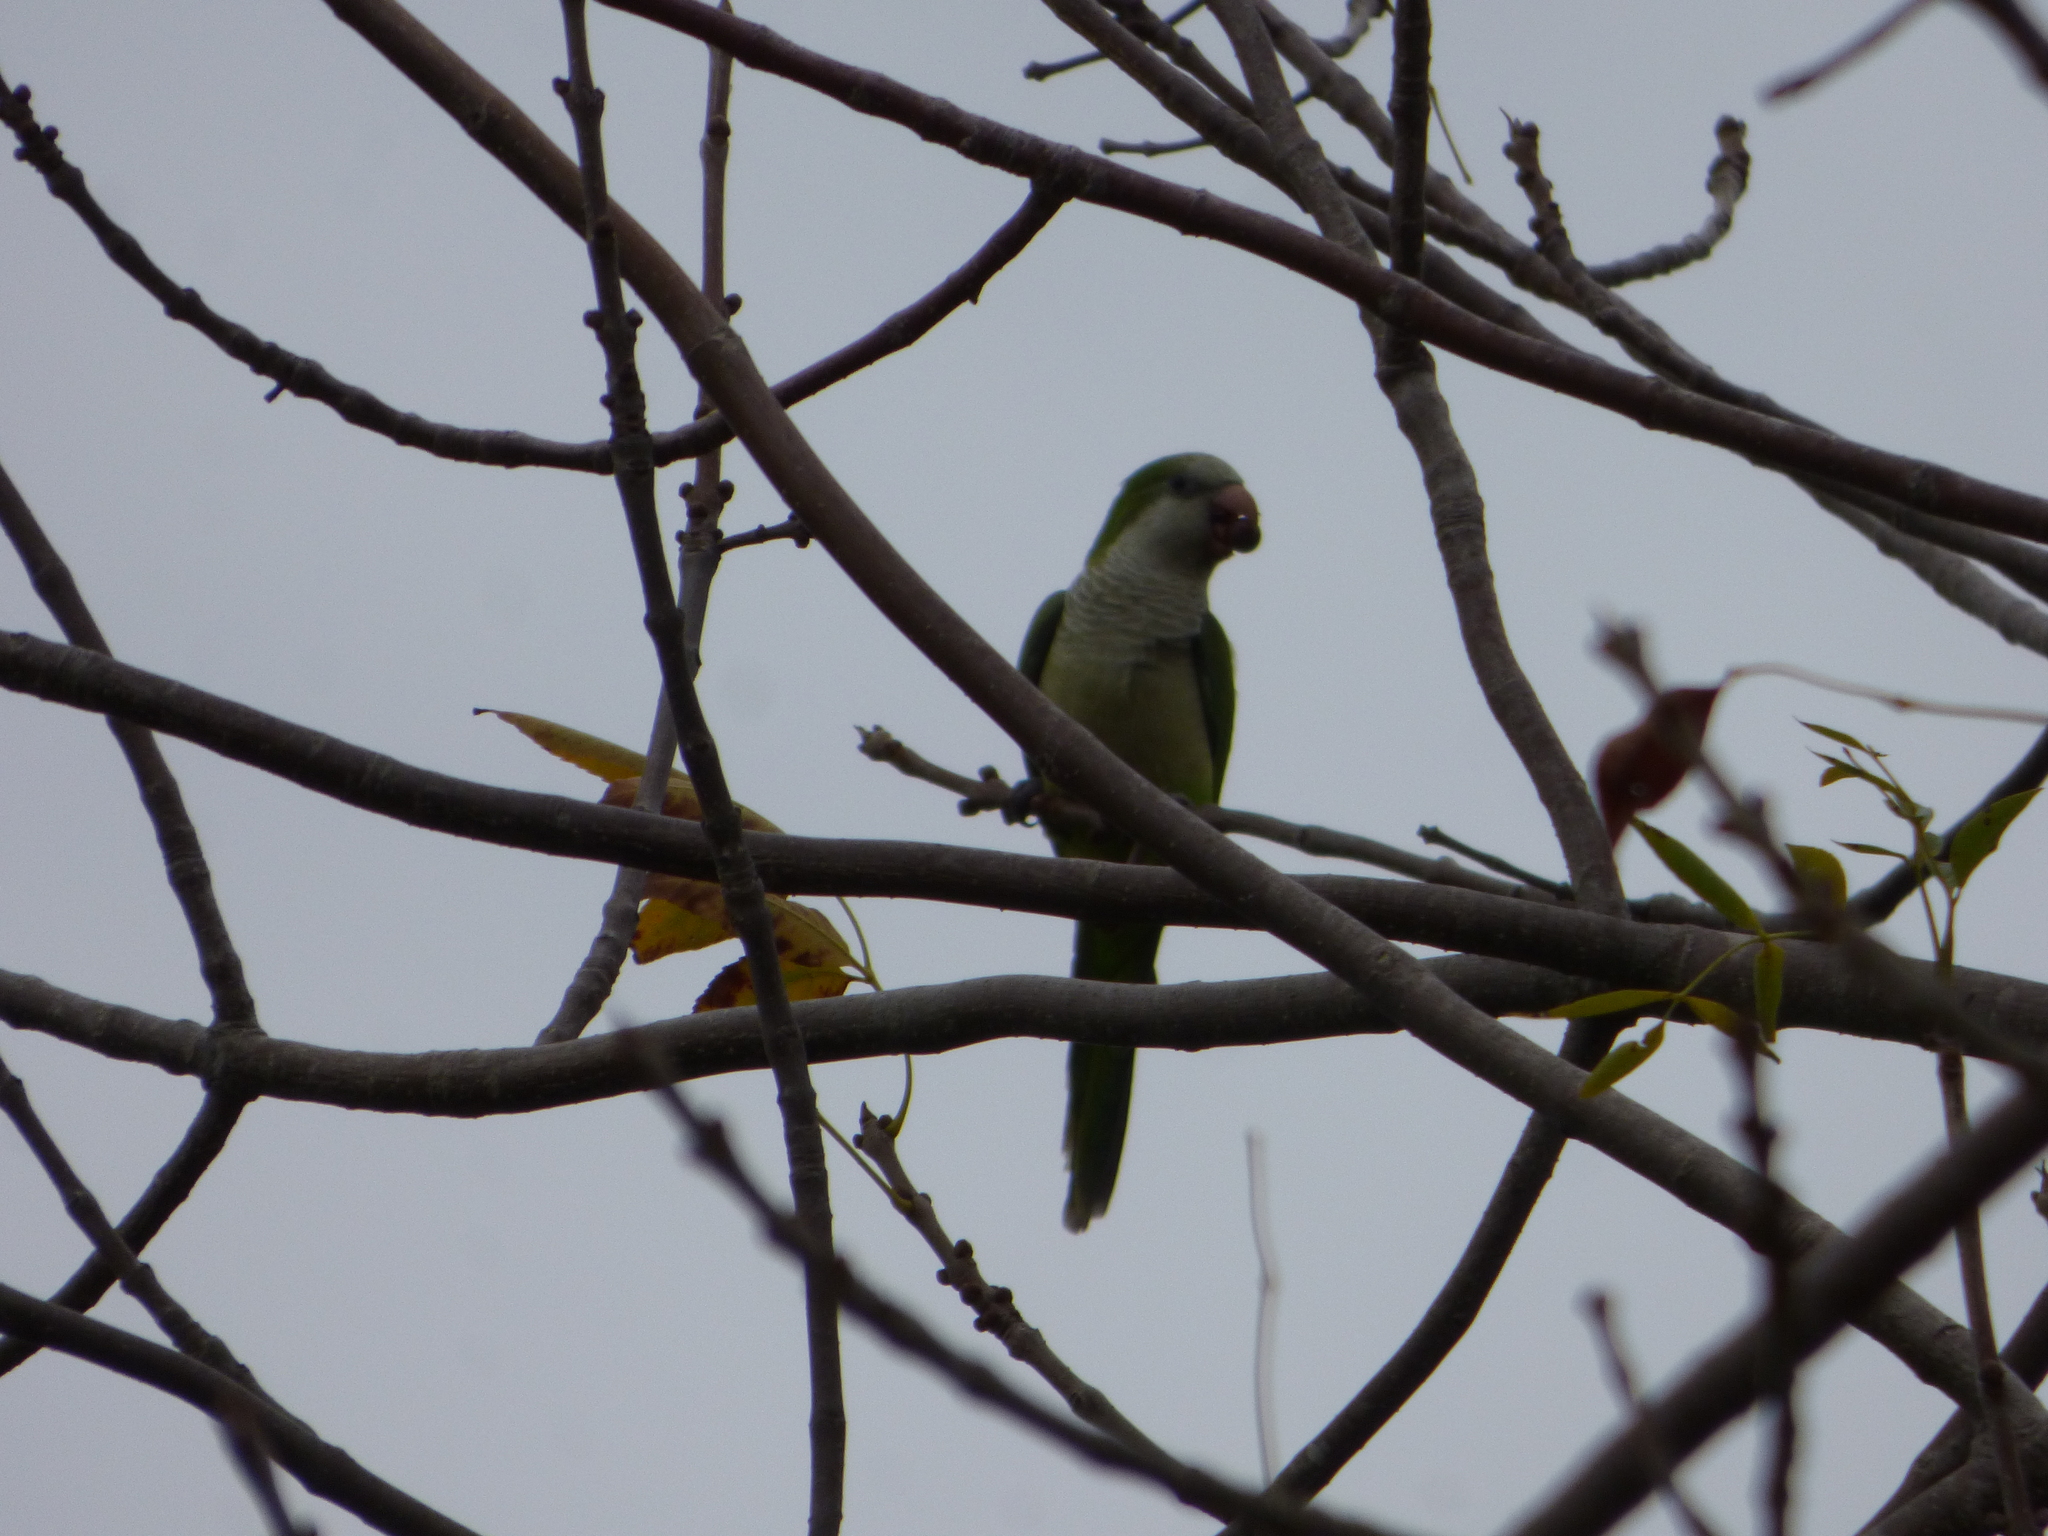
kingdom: Animalia
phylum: Chordata
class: Aves
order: Psittaciformes
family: Psittacidae
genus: Myiopsitta
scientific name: Myiopsitta monachus
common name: Monk parakeet
